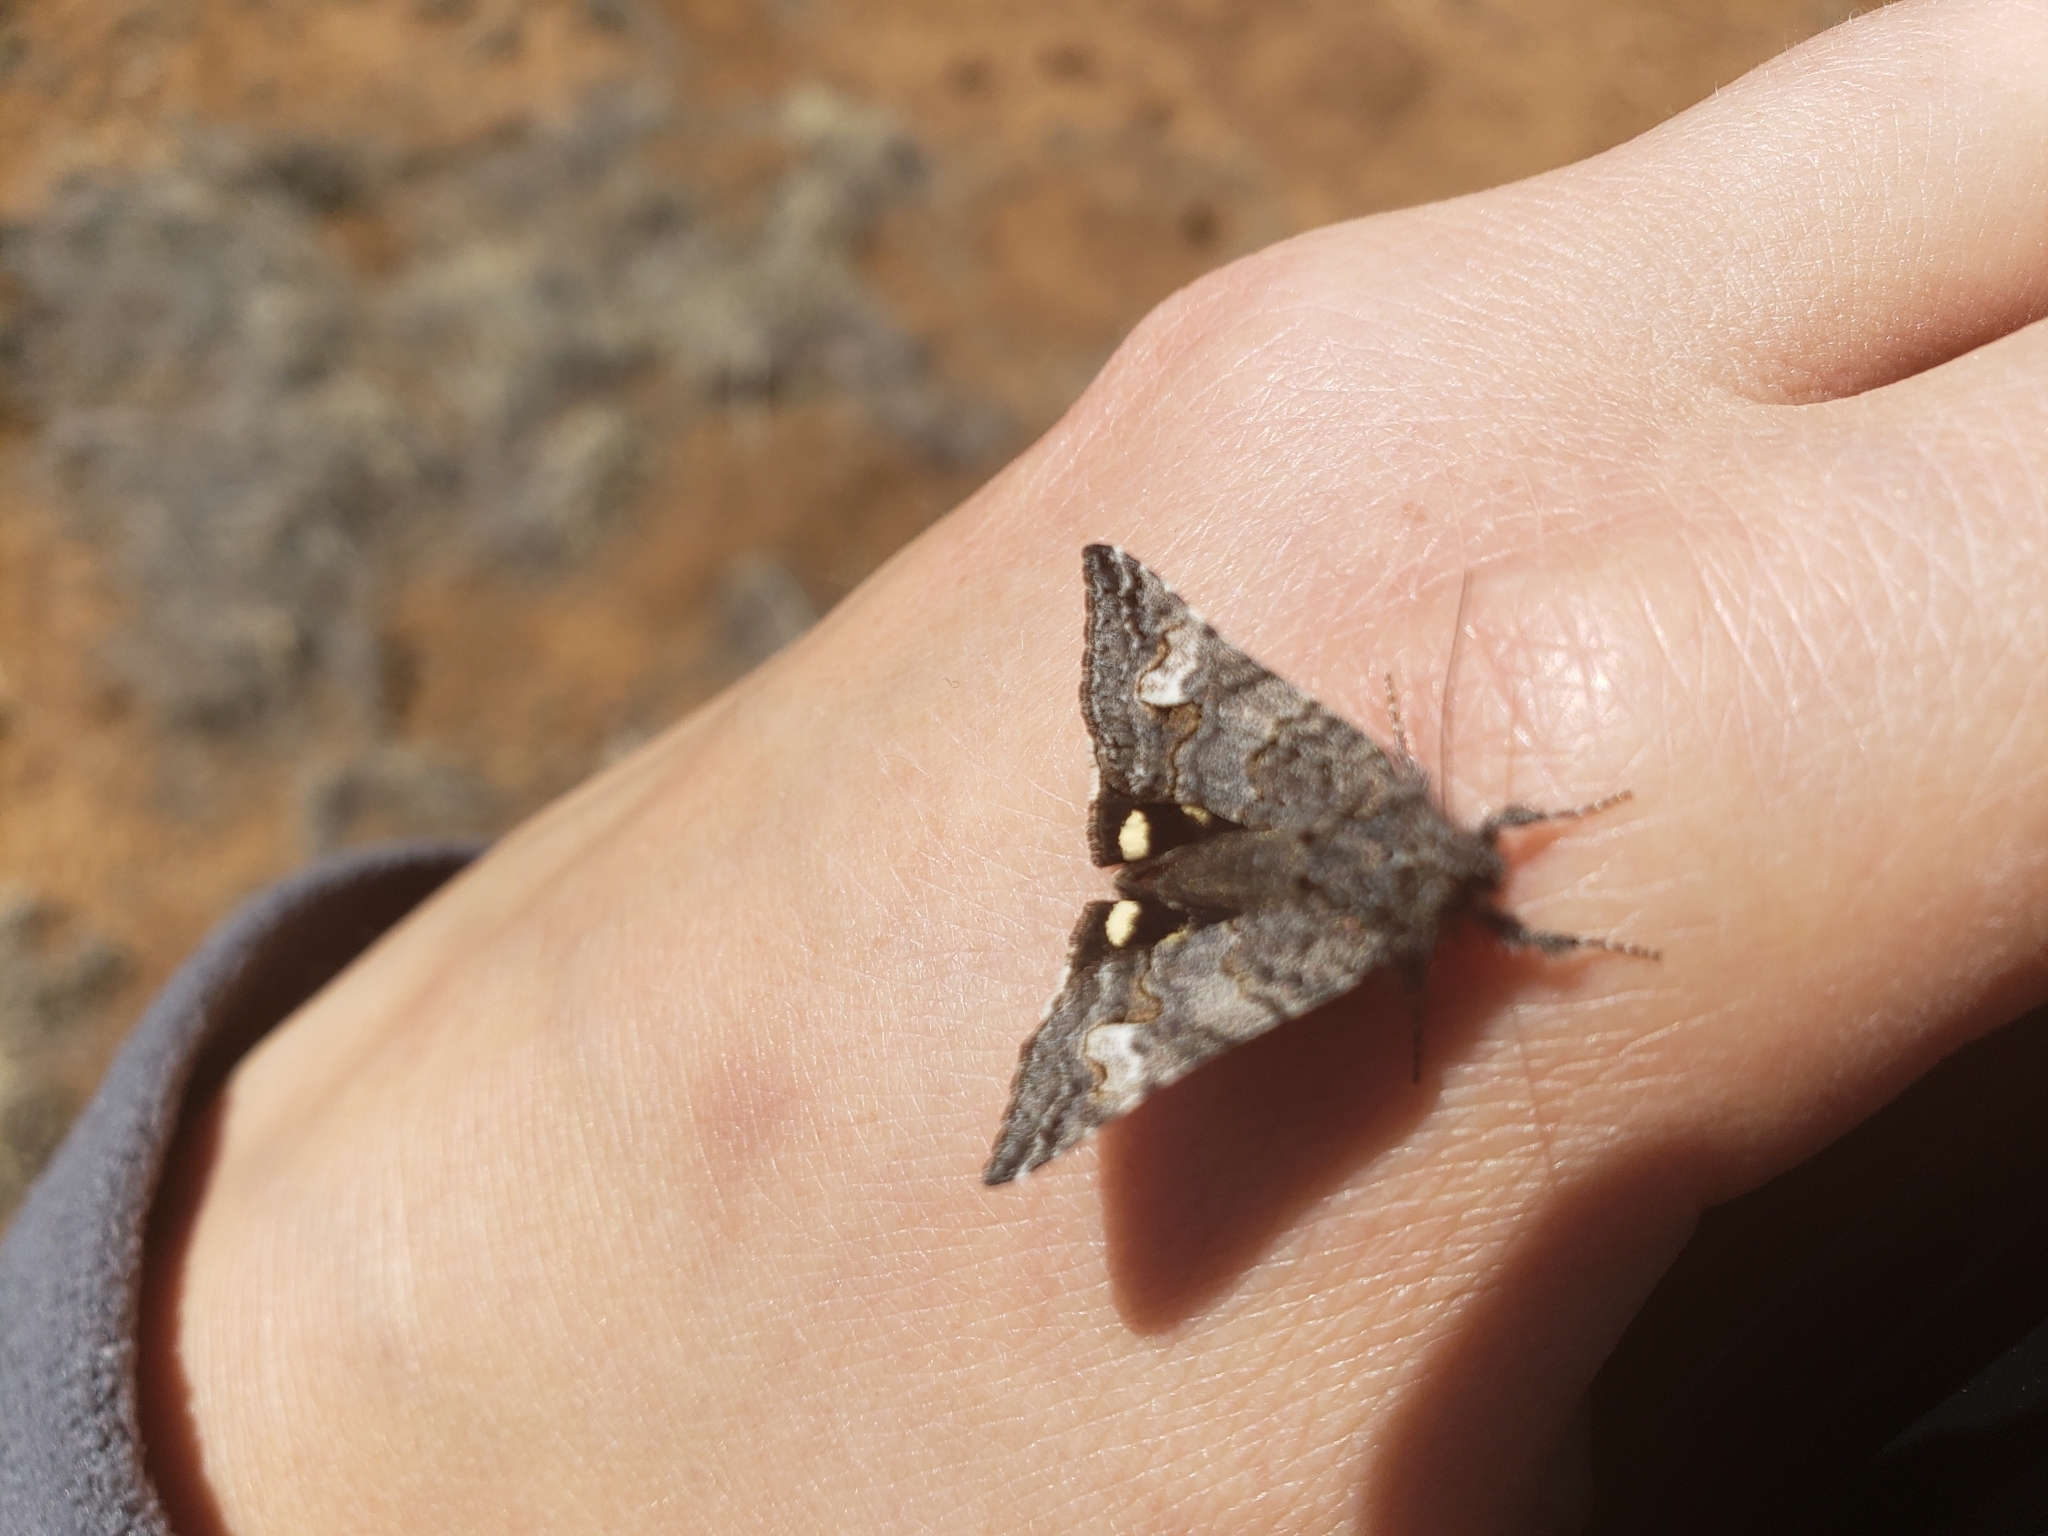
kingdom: Animalia
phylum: Arthropoda
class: Insecta
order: Lepidoptera
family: Erebidae
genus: Litocala
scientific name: Litocala sexsignata
